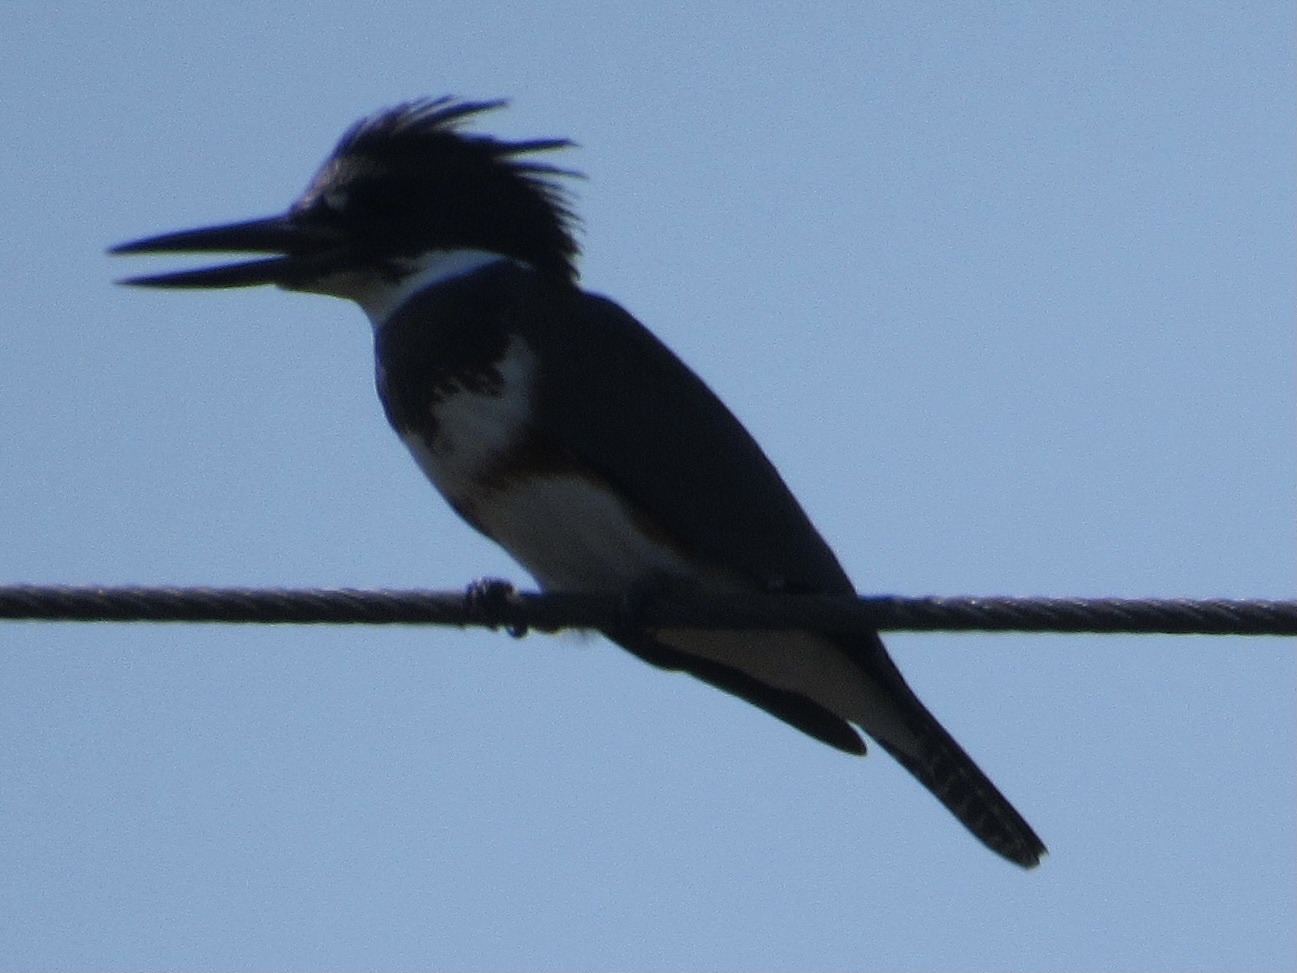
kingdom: Animalia
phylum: Chordata
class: Aves
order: Coraciiformes
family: Alcedinidae
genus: Megaceryle
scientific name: Megaceryle alcyon
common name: Belted kingfisher
